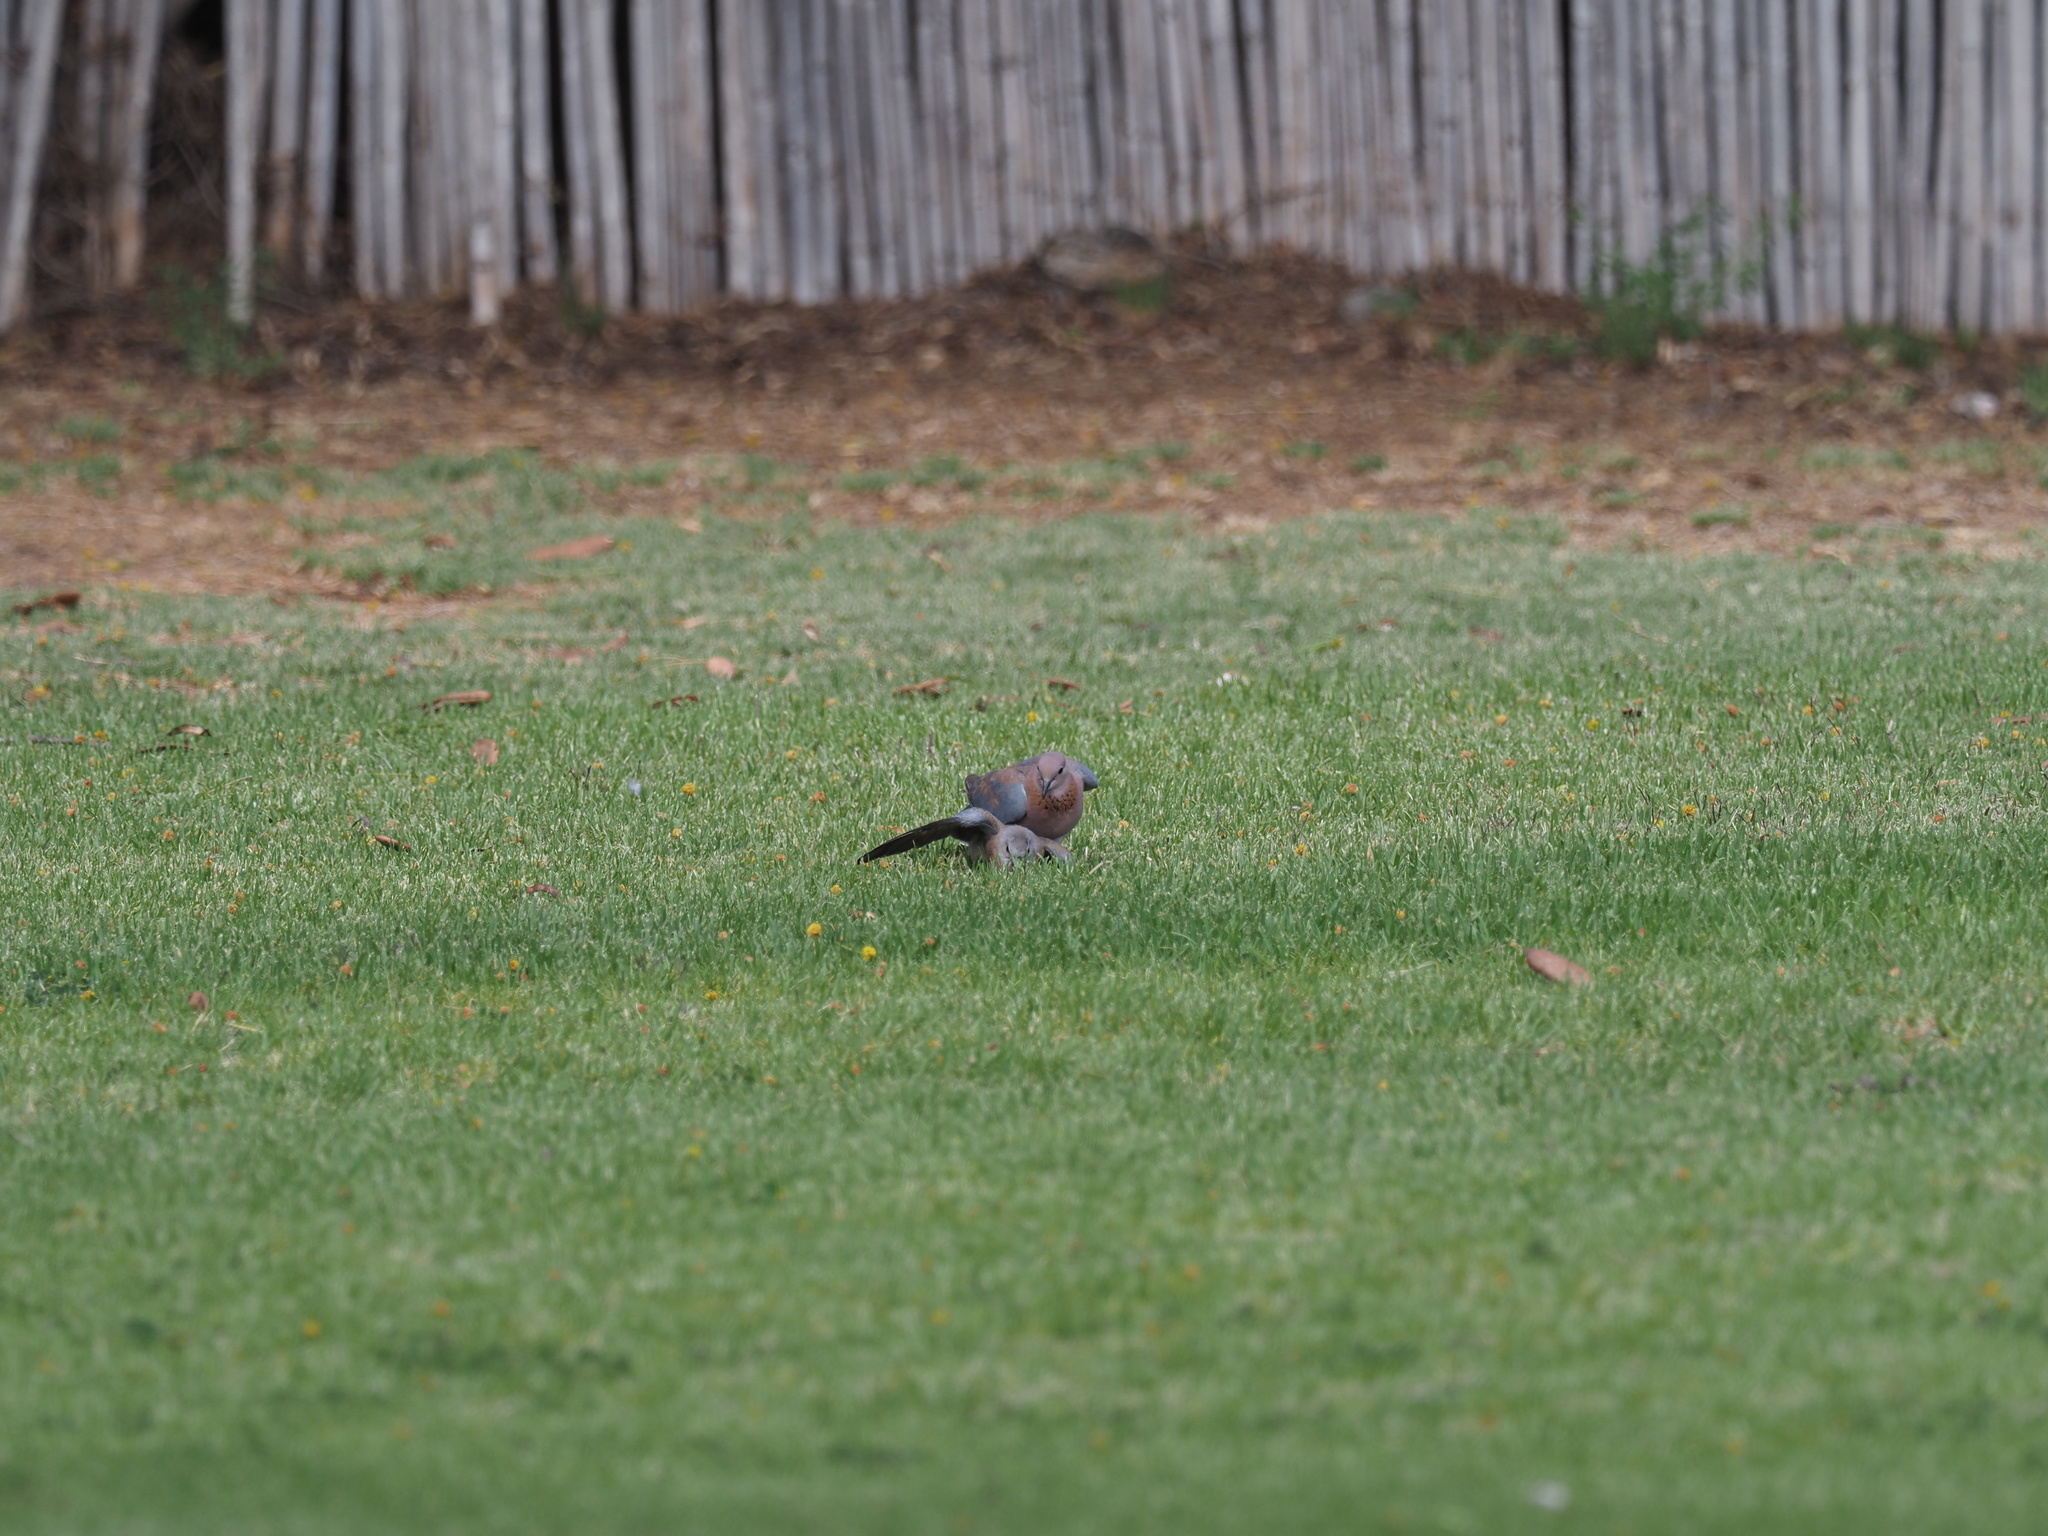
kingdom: Animalia
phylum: Chordata
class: Aves
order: Columbiformes
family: Columbidae
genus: Spilopelia
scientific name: Spilopelia senegalensis
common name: Laughing dove
